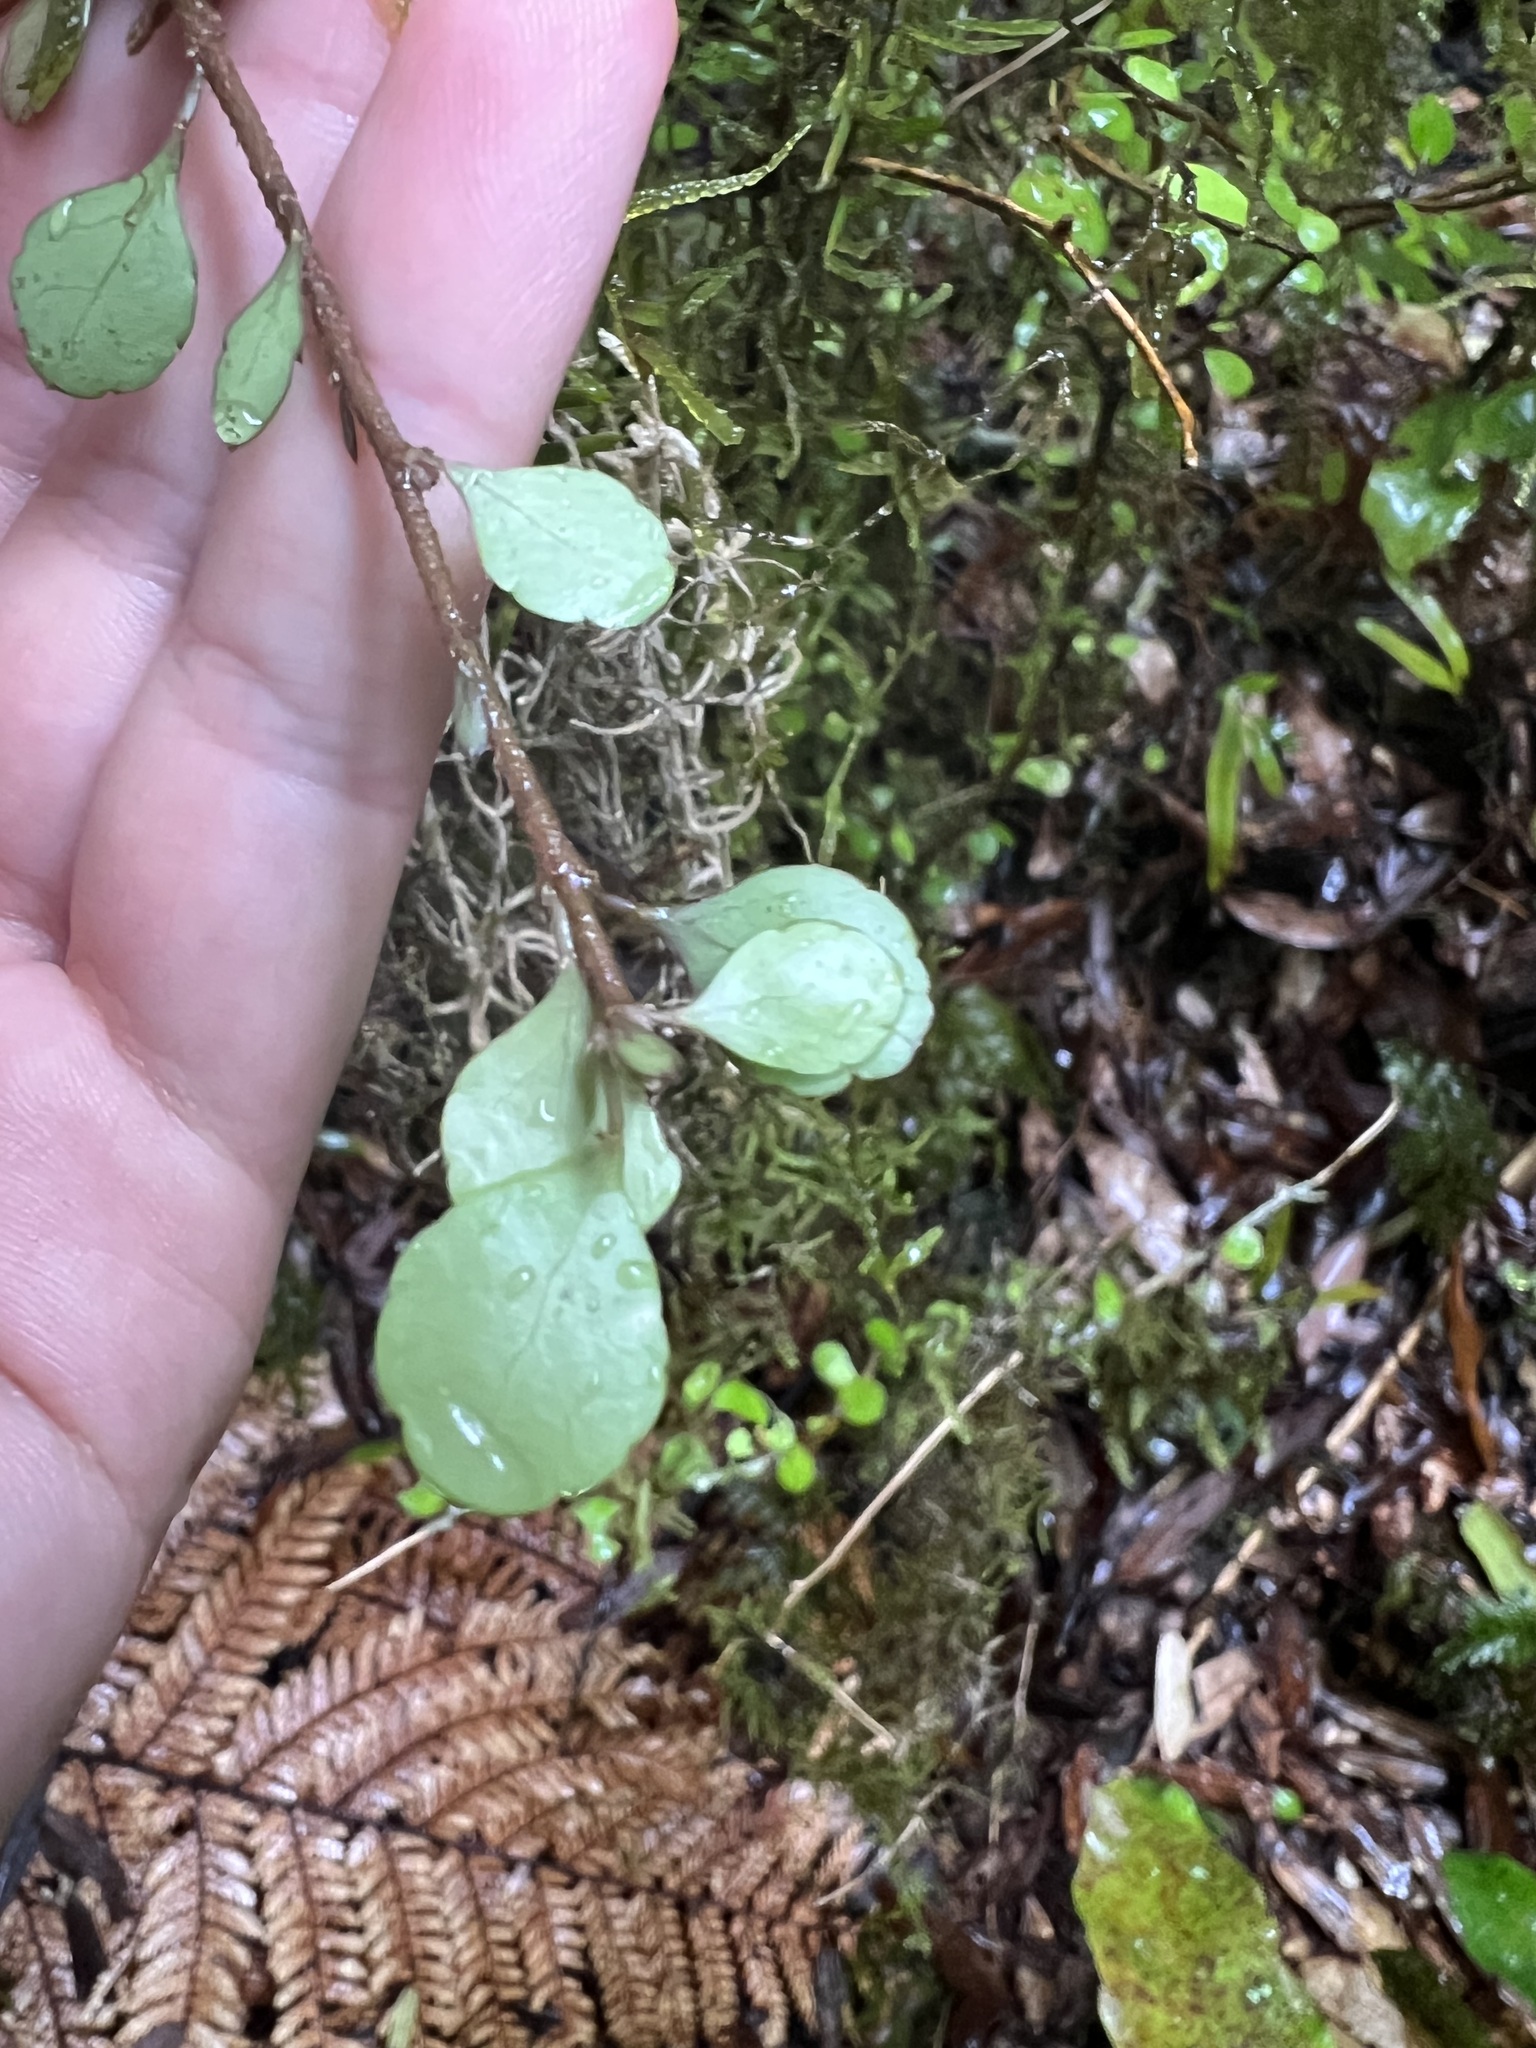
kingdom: Plantae
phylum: Tracheophyta
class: Magnoliopsida
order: Apiales
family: Araliaceae
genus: Raukaua
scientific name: Raukaua anomalus
